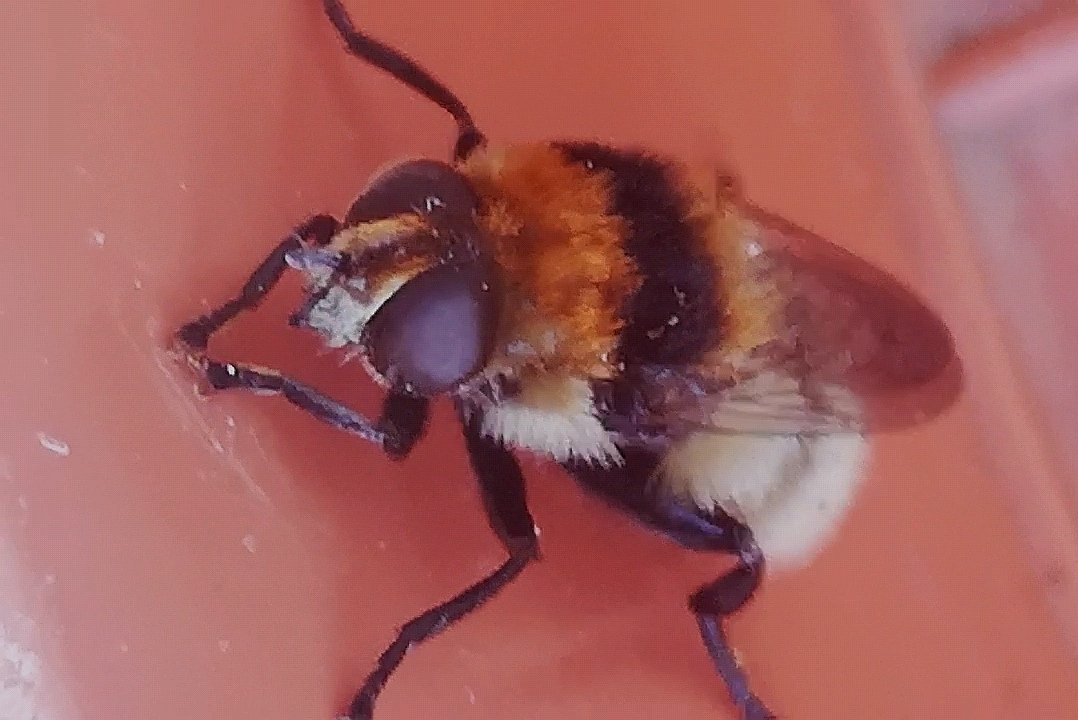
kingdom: Animalia
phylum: Arthropoda
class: Insecta
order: Diptera
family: Syrphidae
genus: Merodon
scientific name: Merodon equestris
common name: Greater bulb-fly
